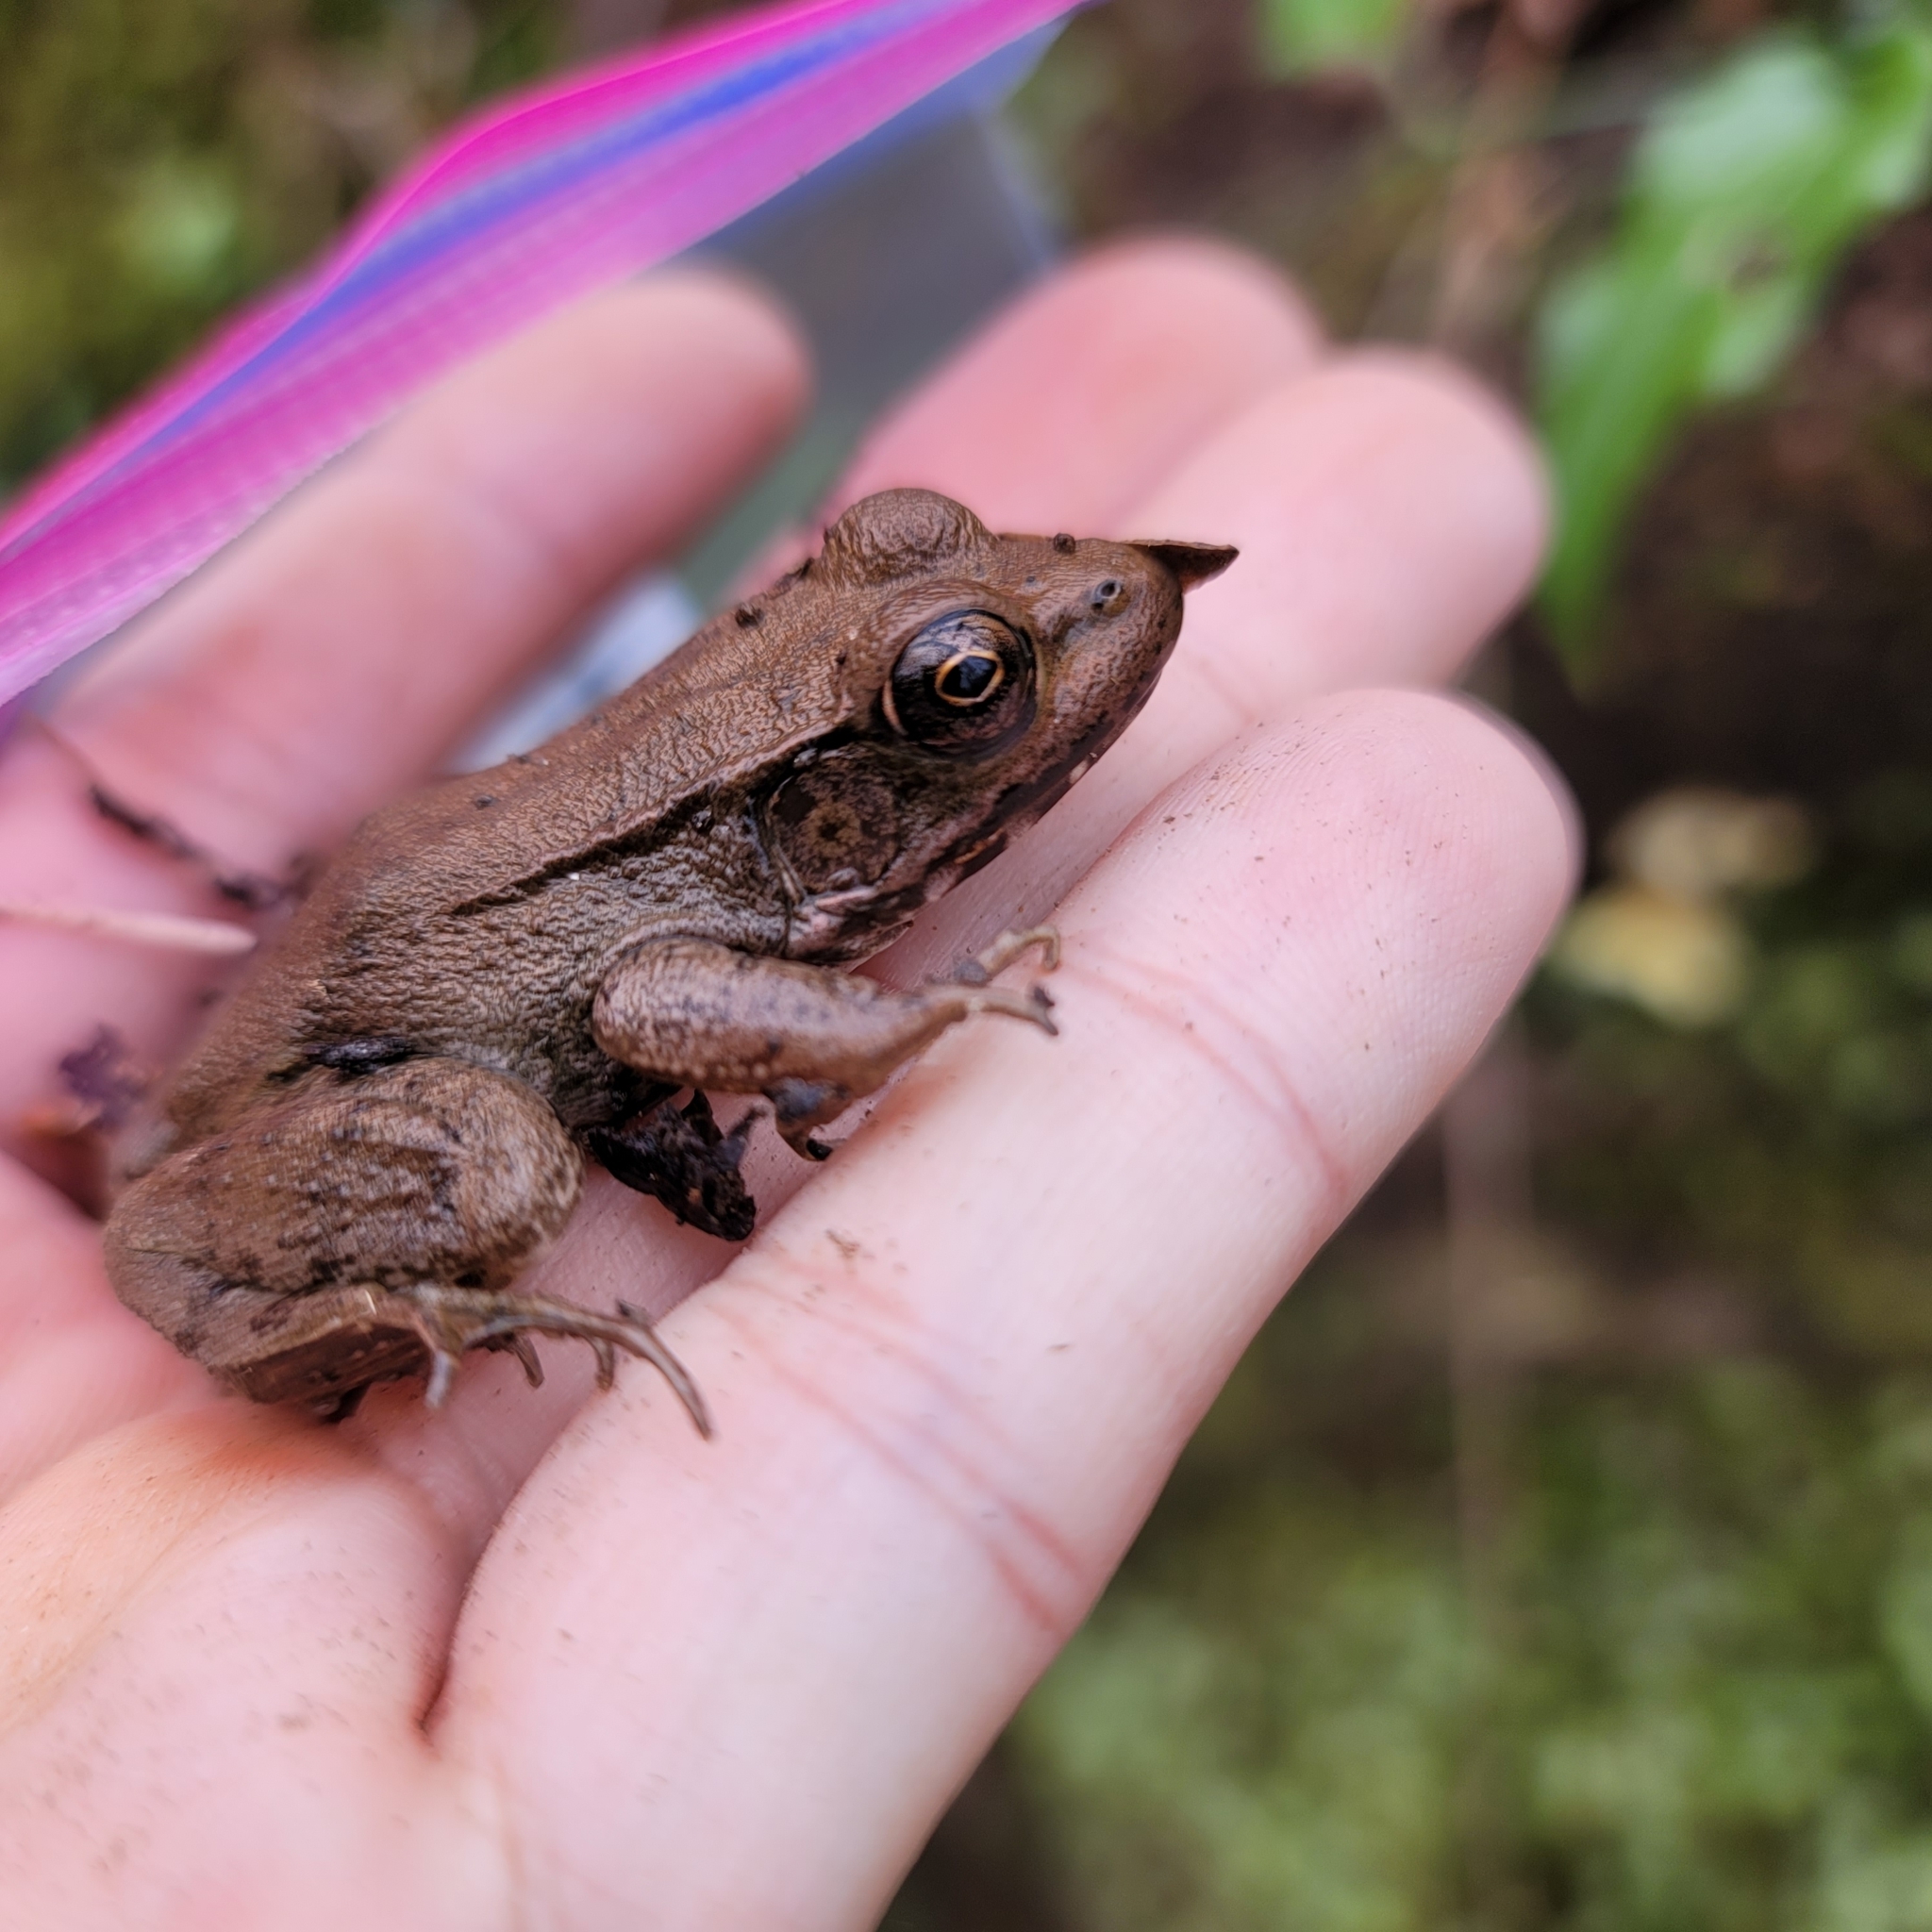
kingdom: Animalia
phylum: Chordata
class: Amphibia
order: Anura
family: Ranidae
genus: Lithobates
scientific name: Lithobates clamitans
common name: Green frog
